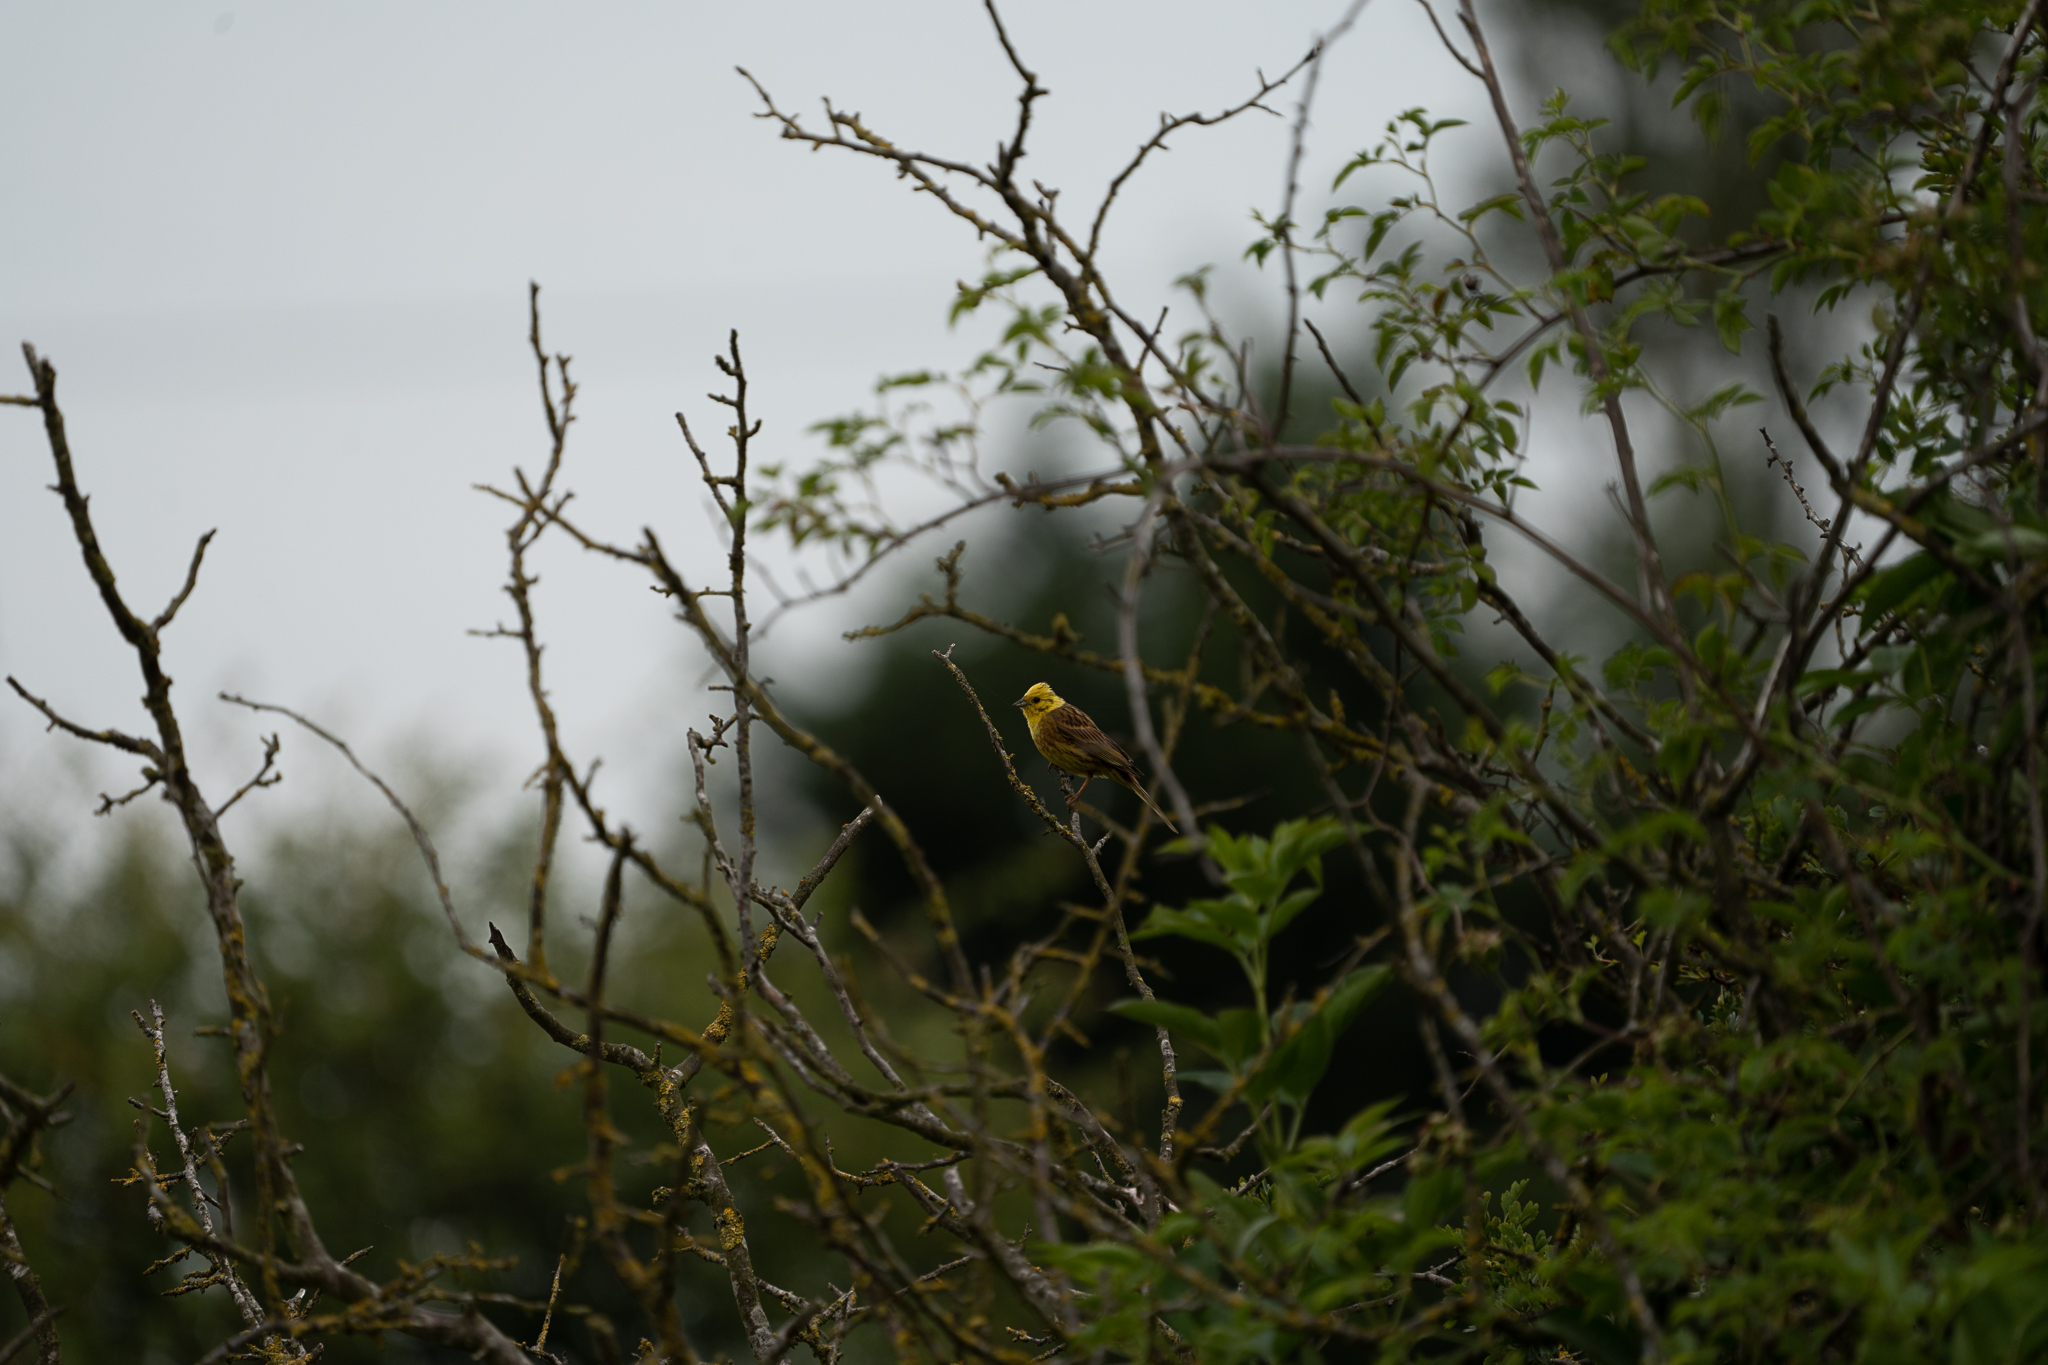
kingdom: Animalia
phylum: Chordata
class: Aves
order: Passeriformes
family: Emberizidae
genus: Emberiza
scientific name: Emberiza citrinella
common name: Yellowhammer
